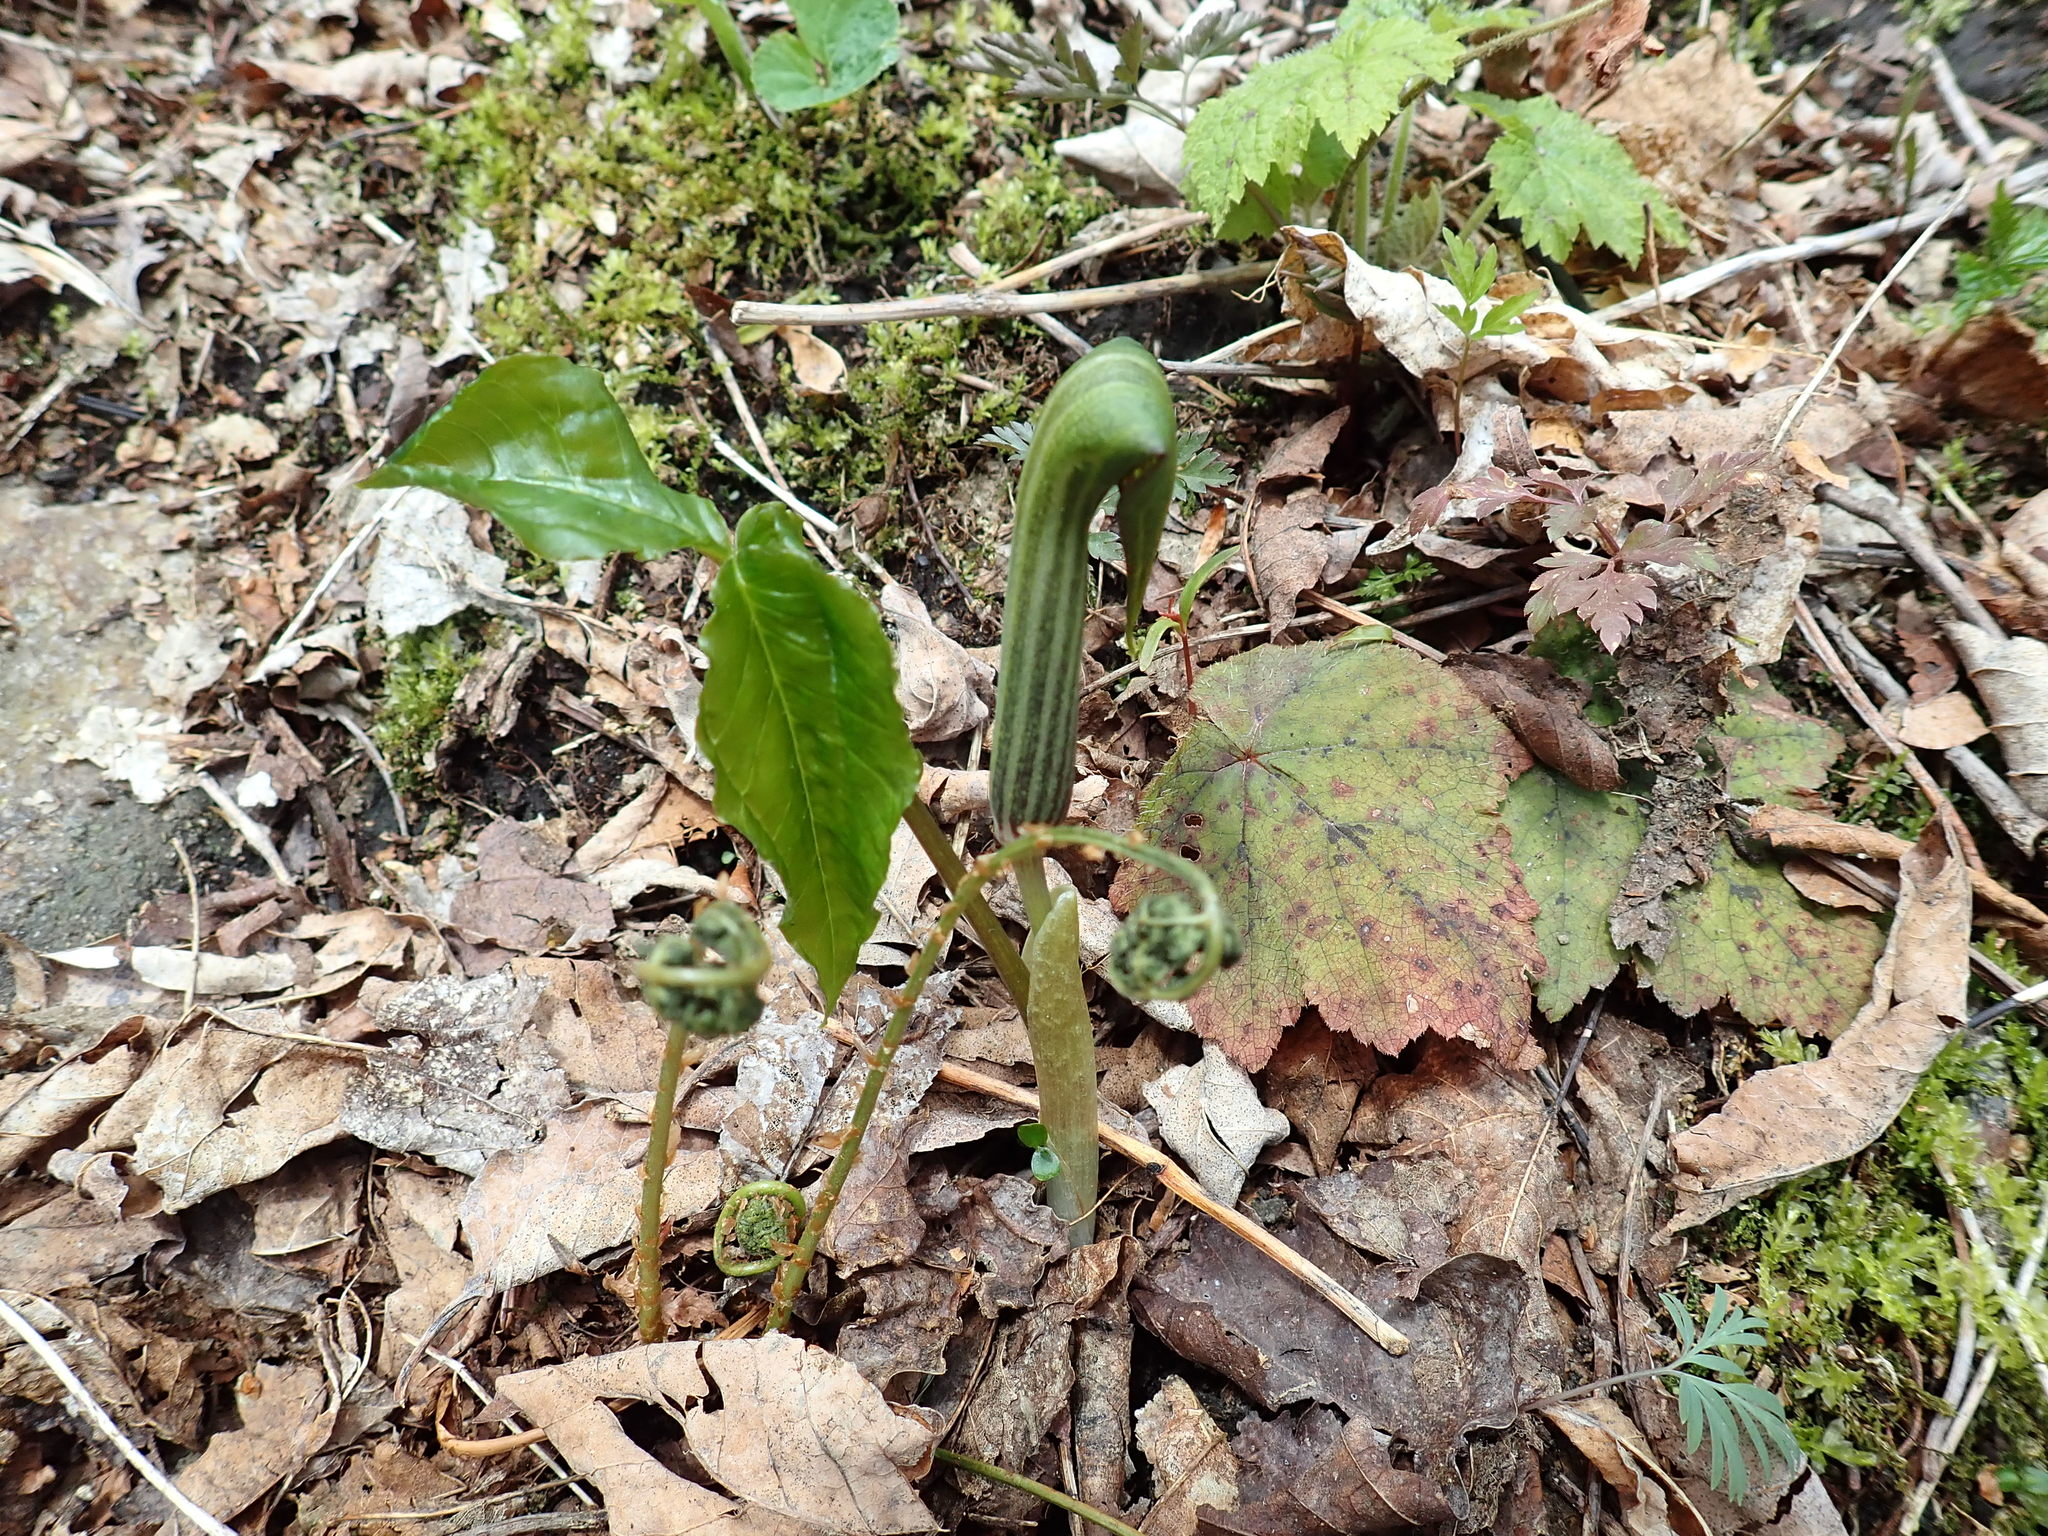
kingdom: Plantae
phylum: Tracheophyta
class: Liliopsida
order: Alismatales
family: Araceae
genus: Arisaema
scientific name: Arisaema triphyllum
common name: Jack-in-the-pulpit
